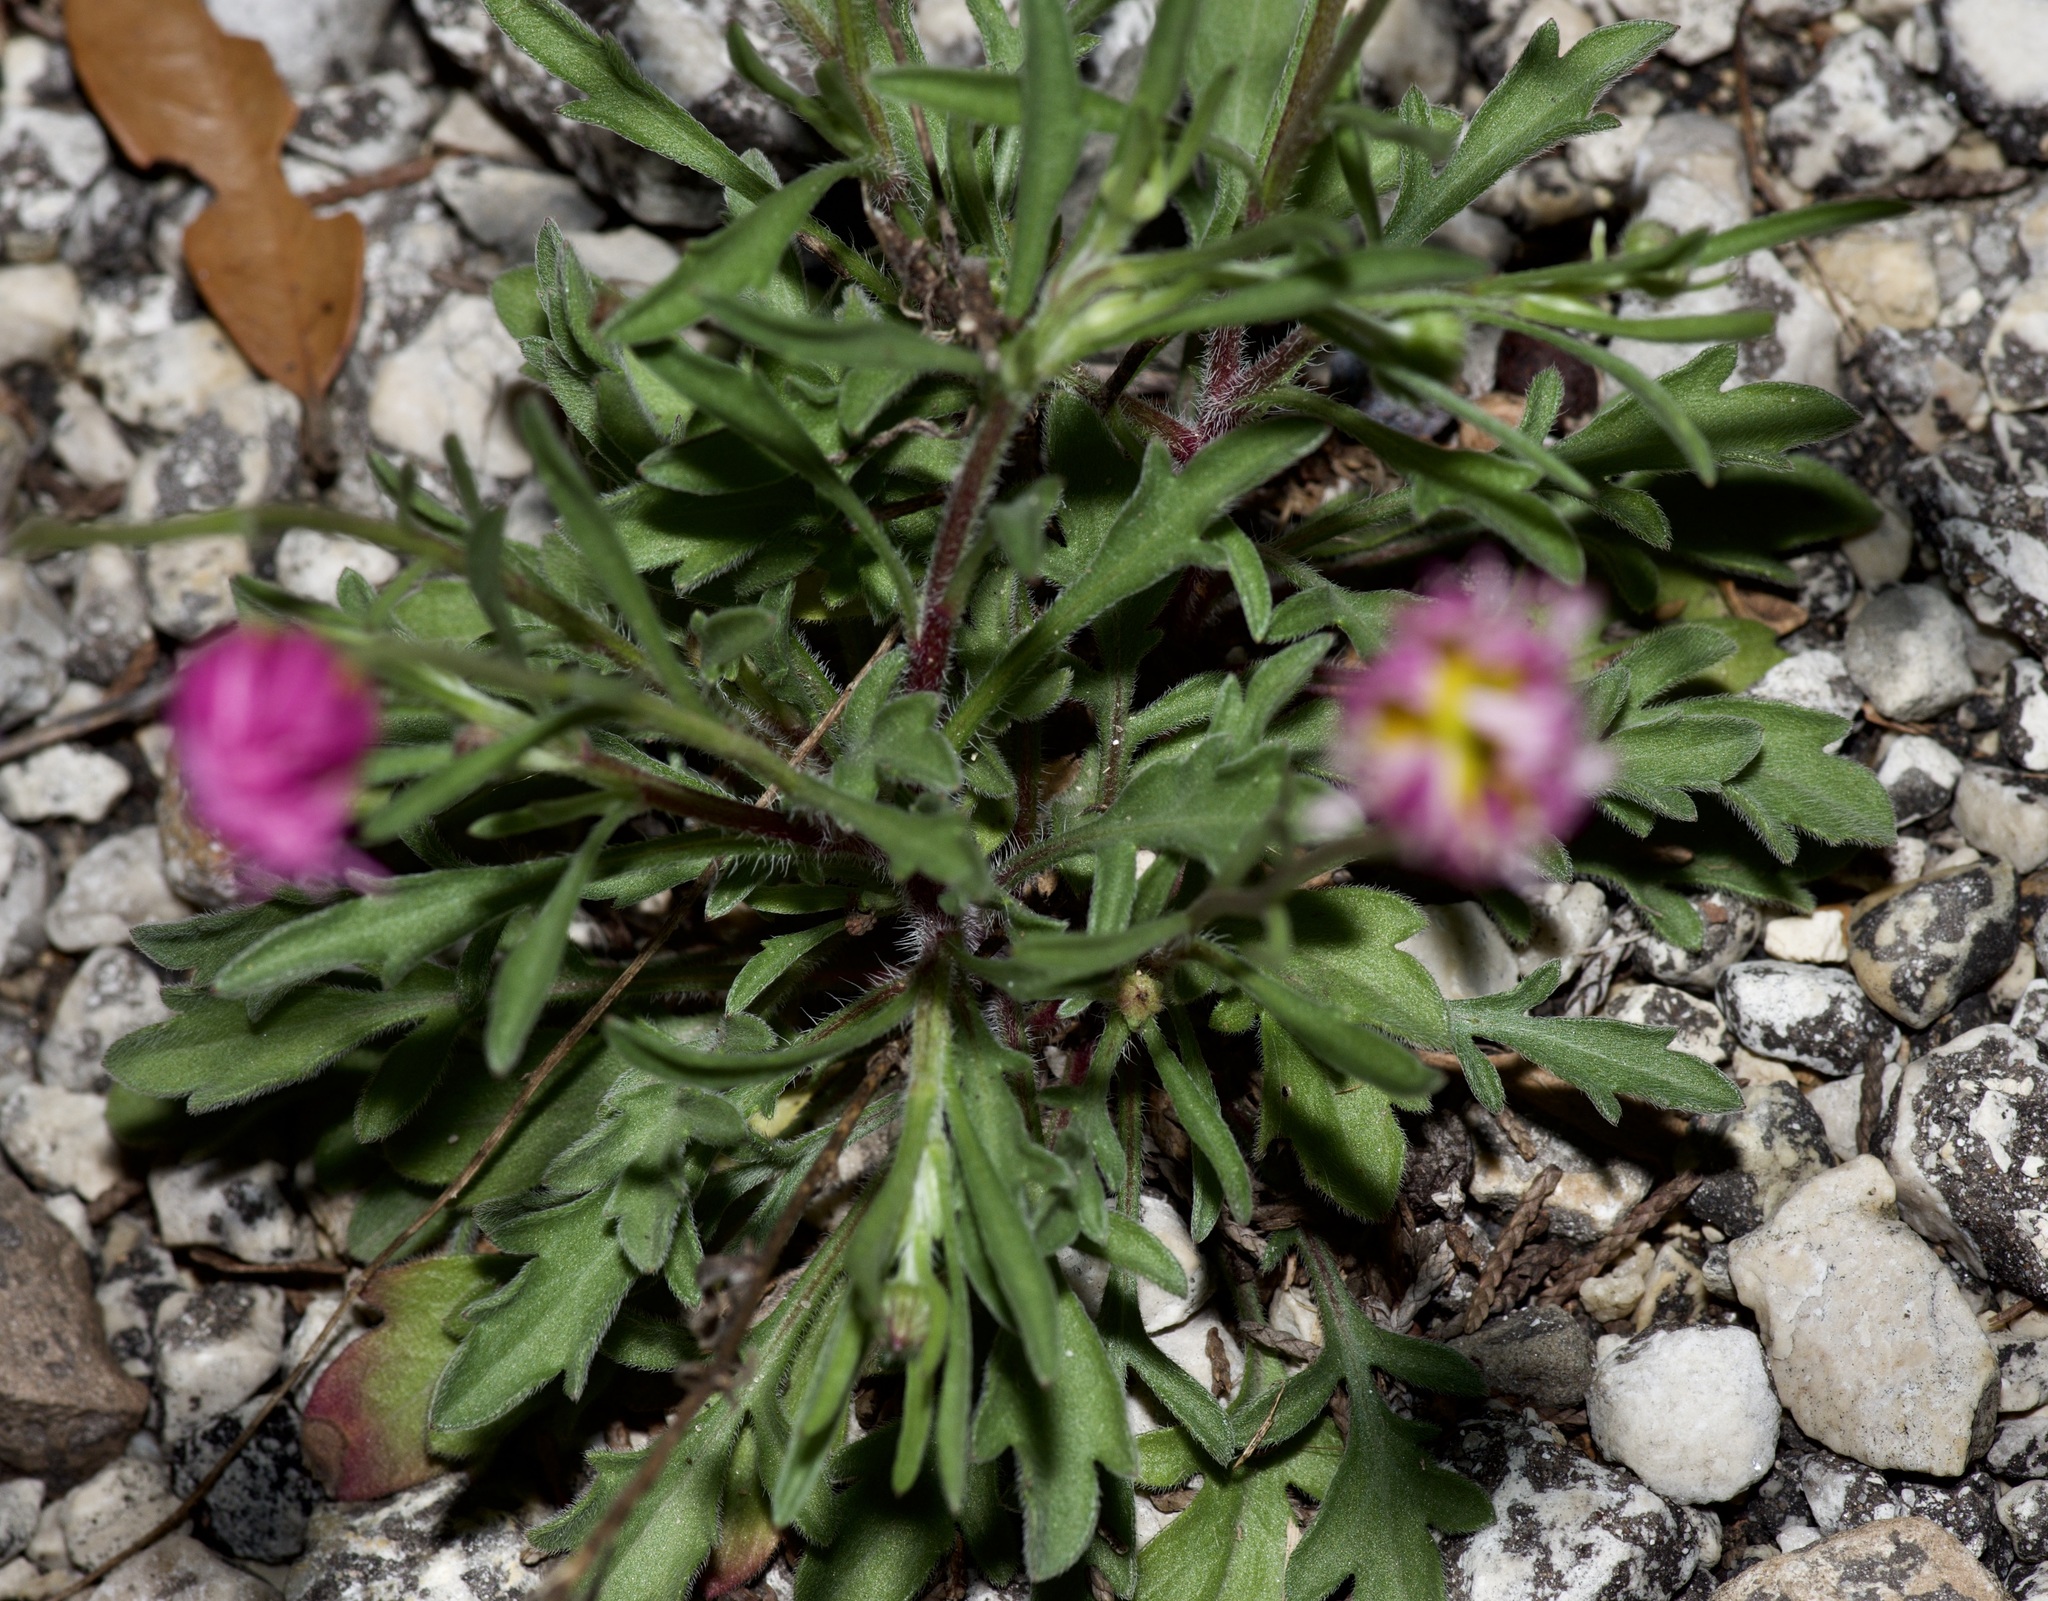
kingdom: Plantae
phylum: Tracheophyta
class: Magnoliopsida
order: Asterales
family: Asteraceae
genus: Erigeron
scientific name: Erigeron modestus
